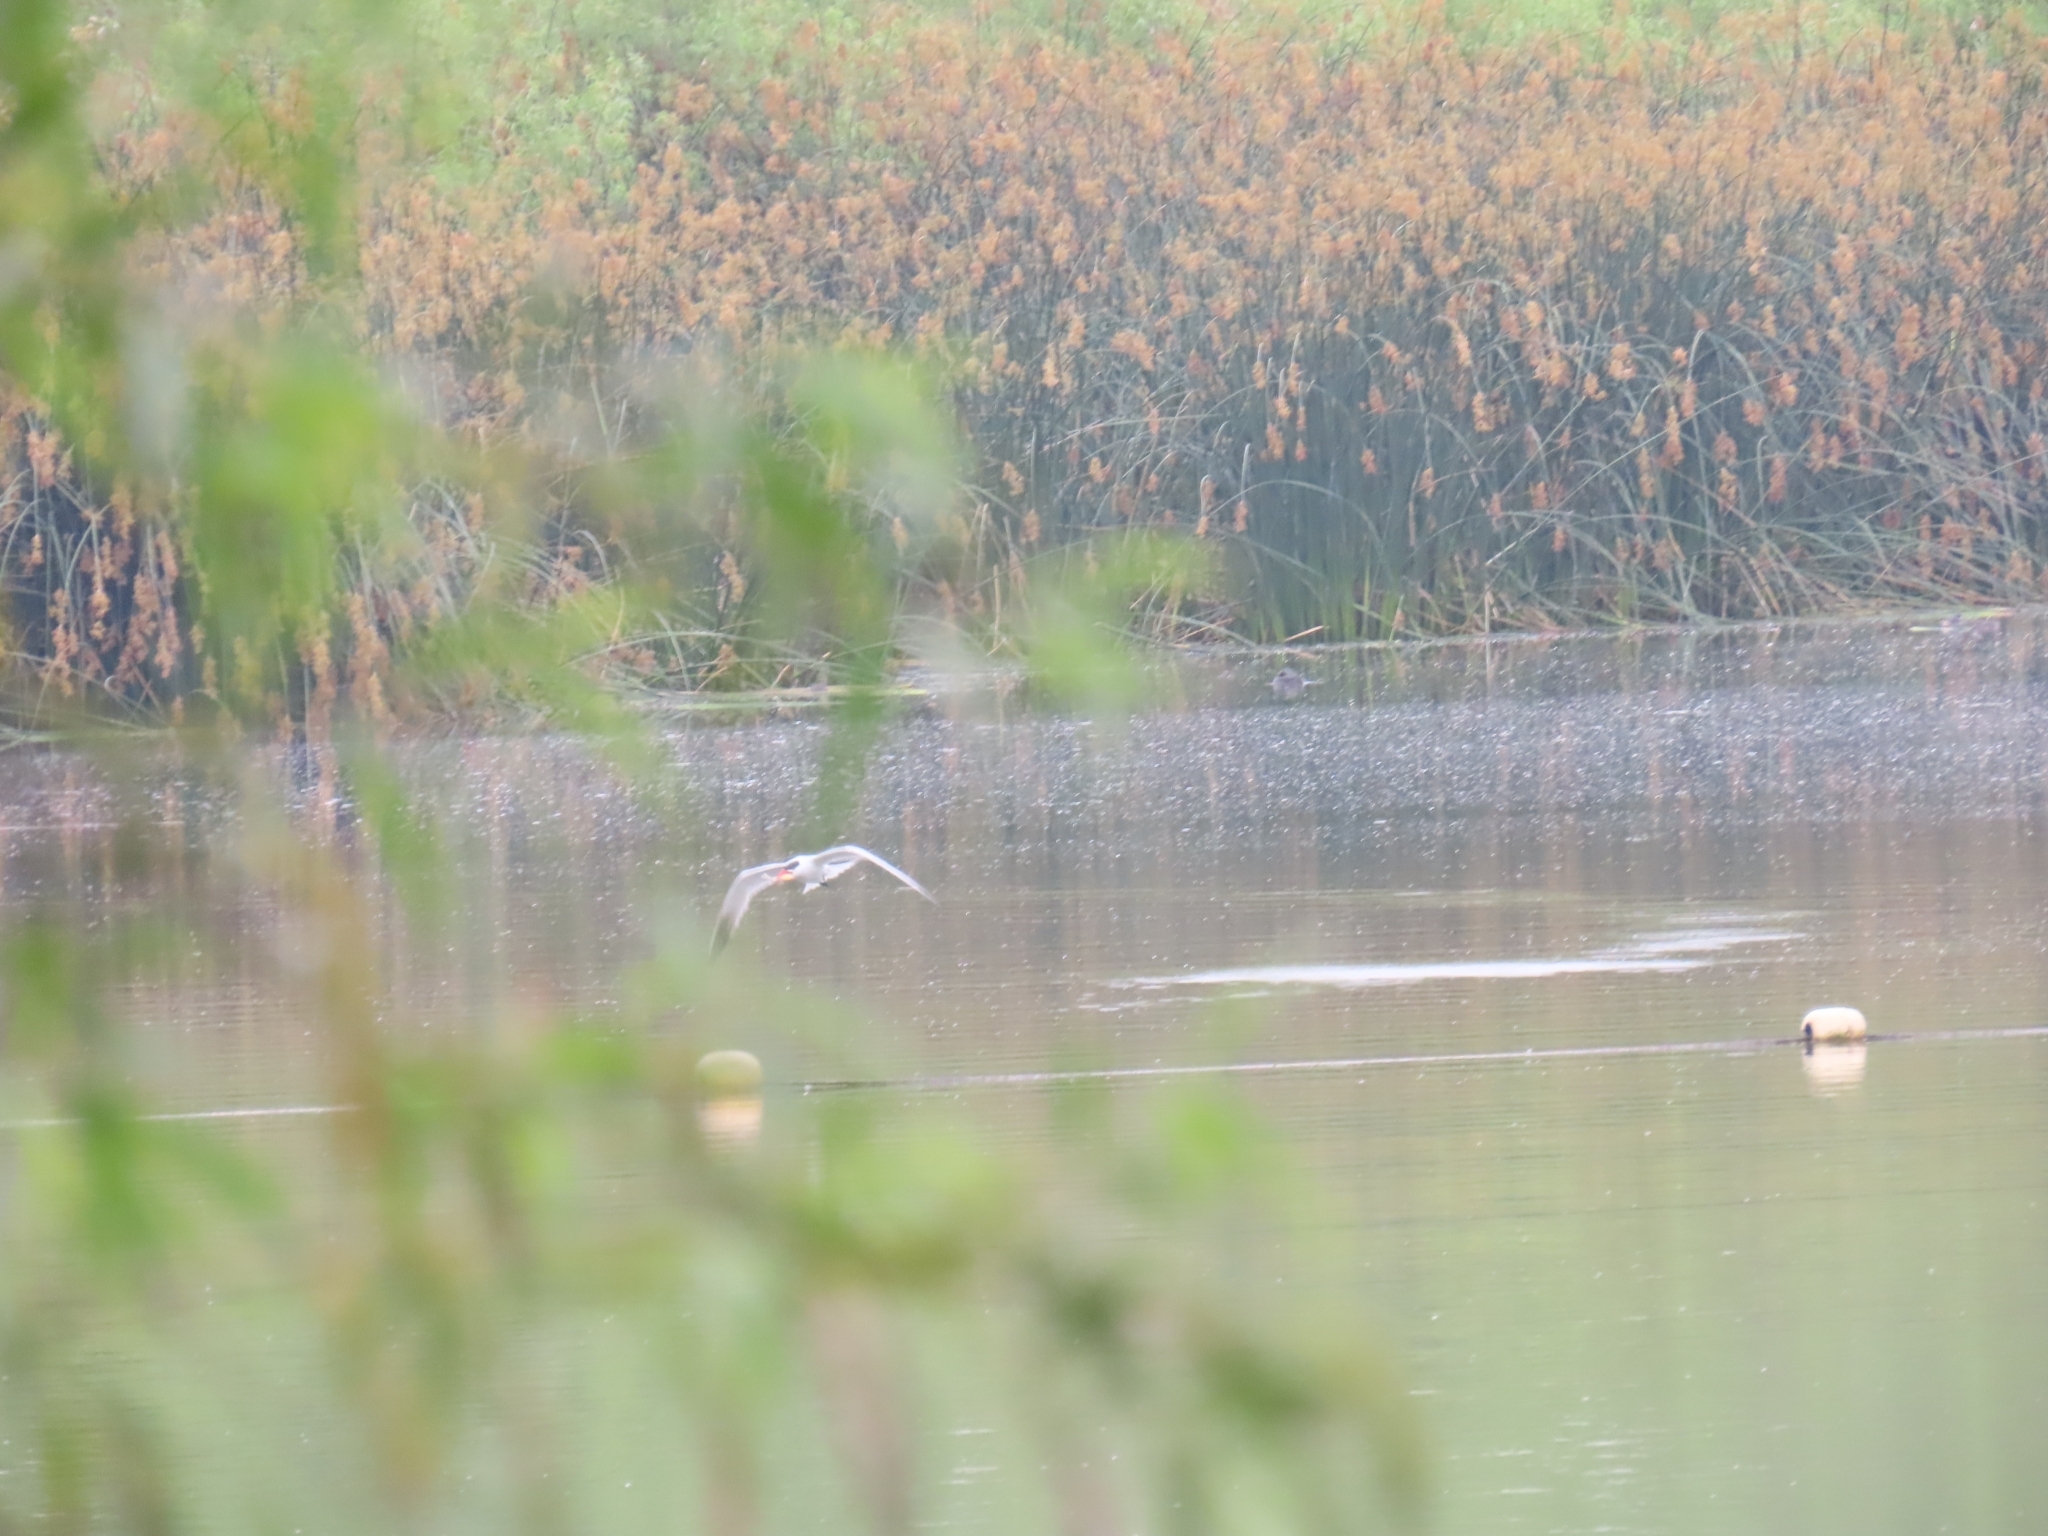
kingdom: Animalia
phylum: Chordata
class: Aves
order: Charadriiformes
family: Laridae
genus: Hydroprogne
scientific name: Hydroprogne caspia
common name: Caspian tern
